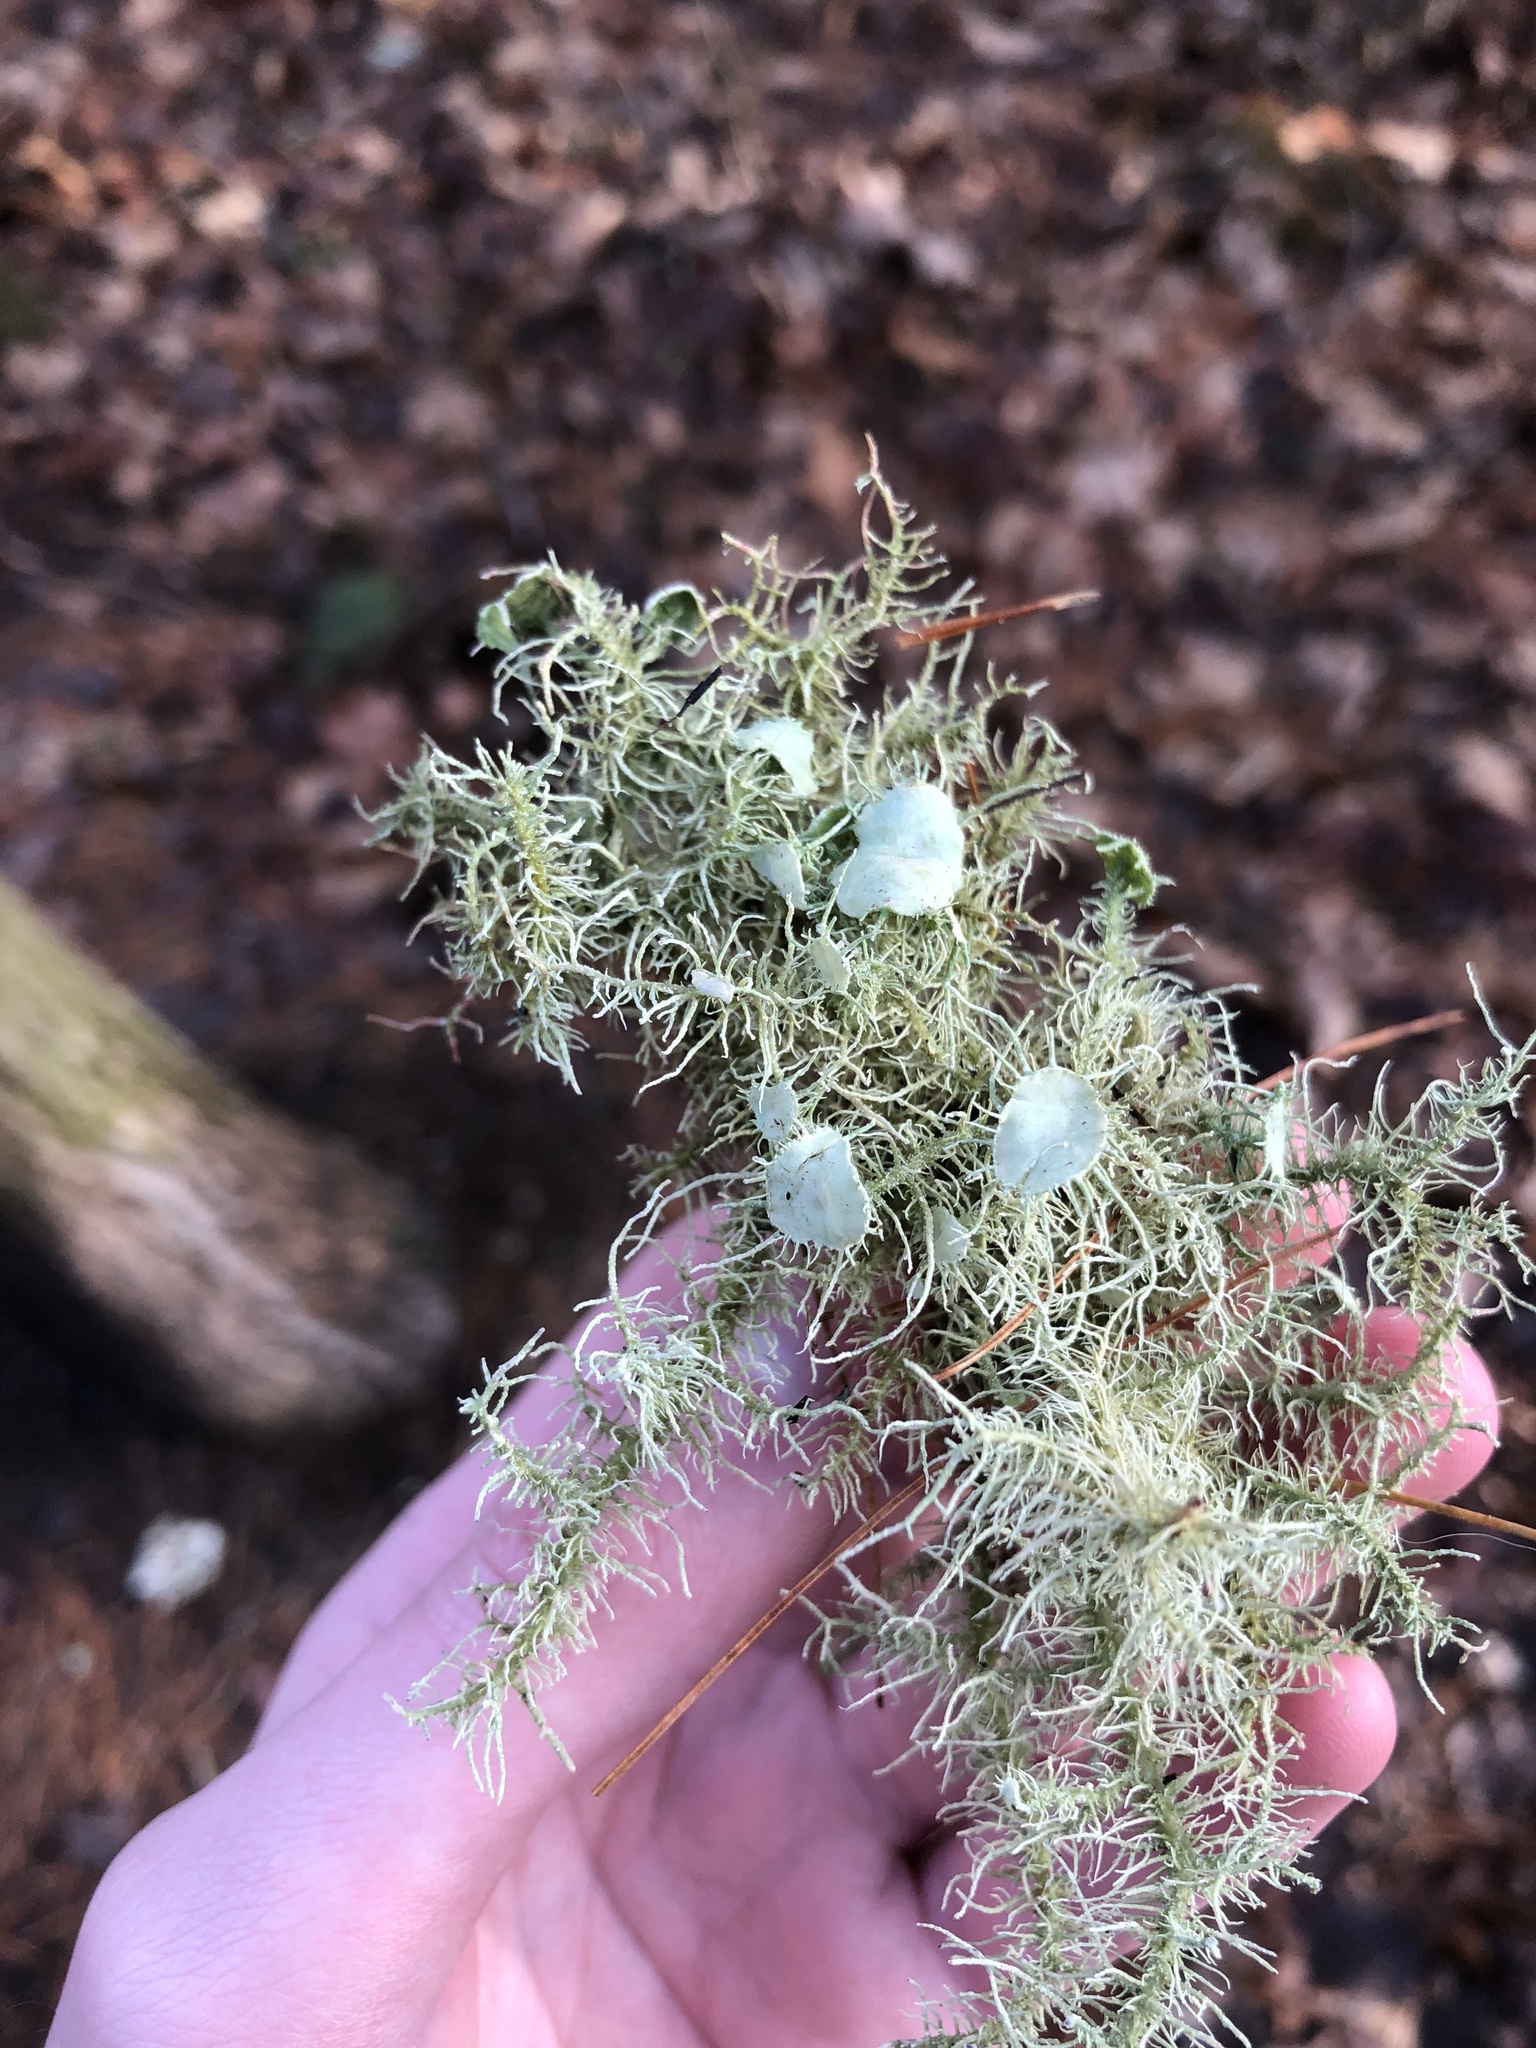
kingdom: Fungi
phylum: Ascomycota
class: Lecanoromycetes
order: Lecanorales
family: Parmeliaceae
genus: Usnea
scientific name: Usnea strigosa
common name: Bushy beard lichen
